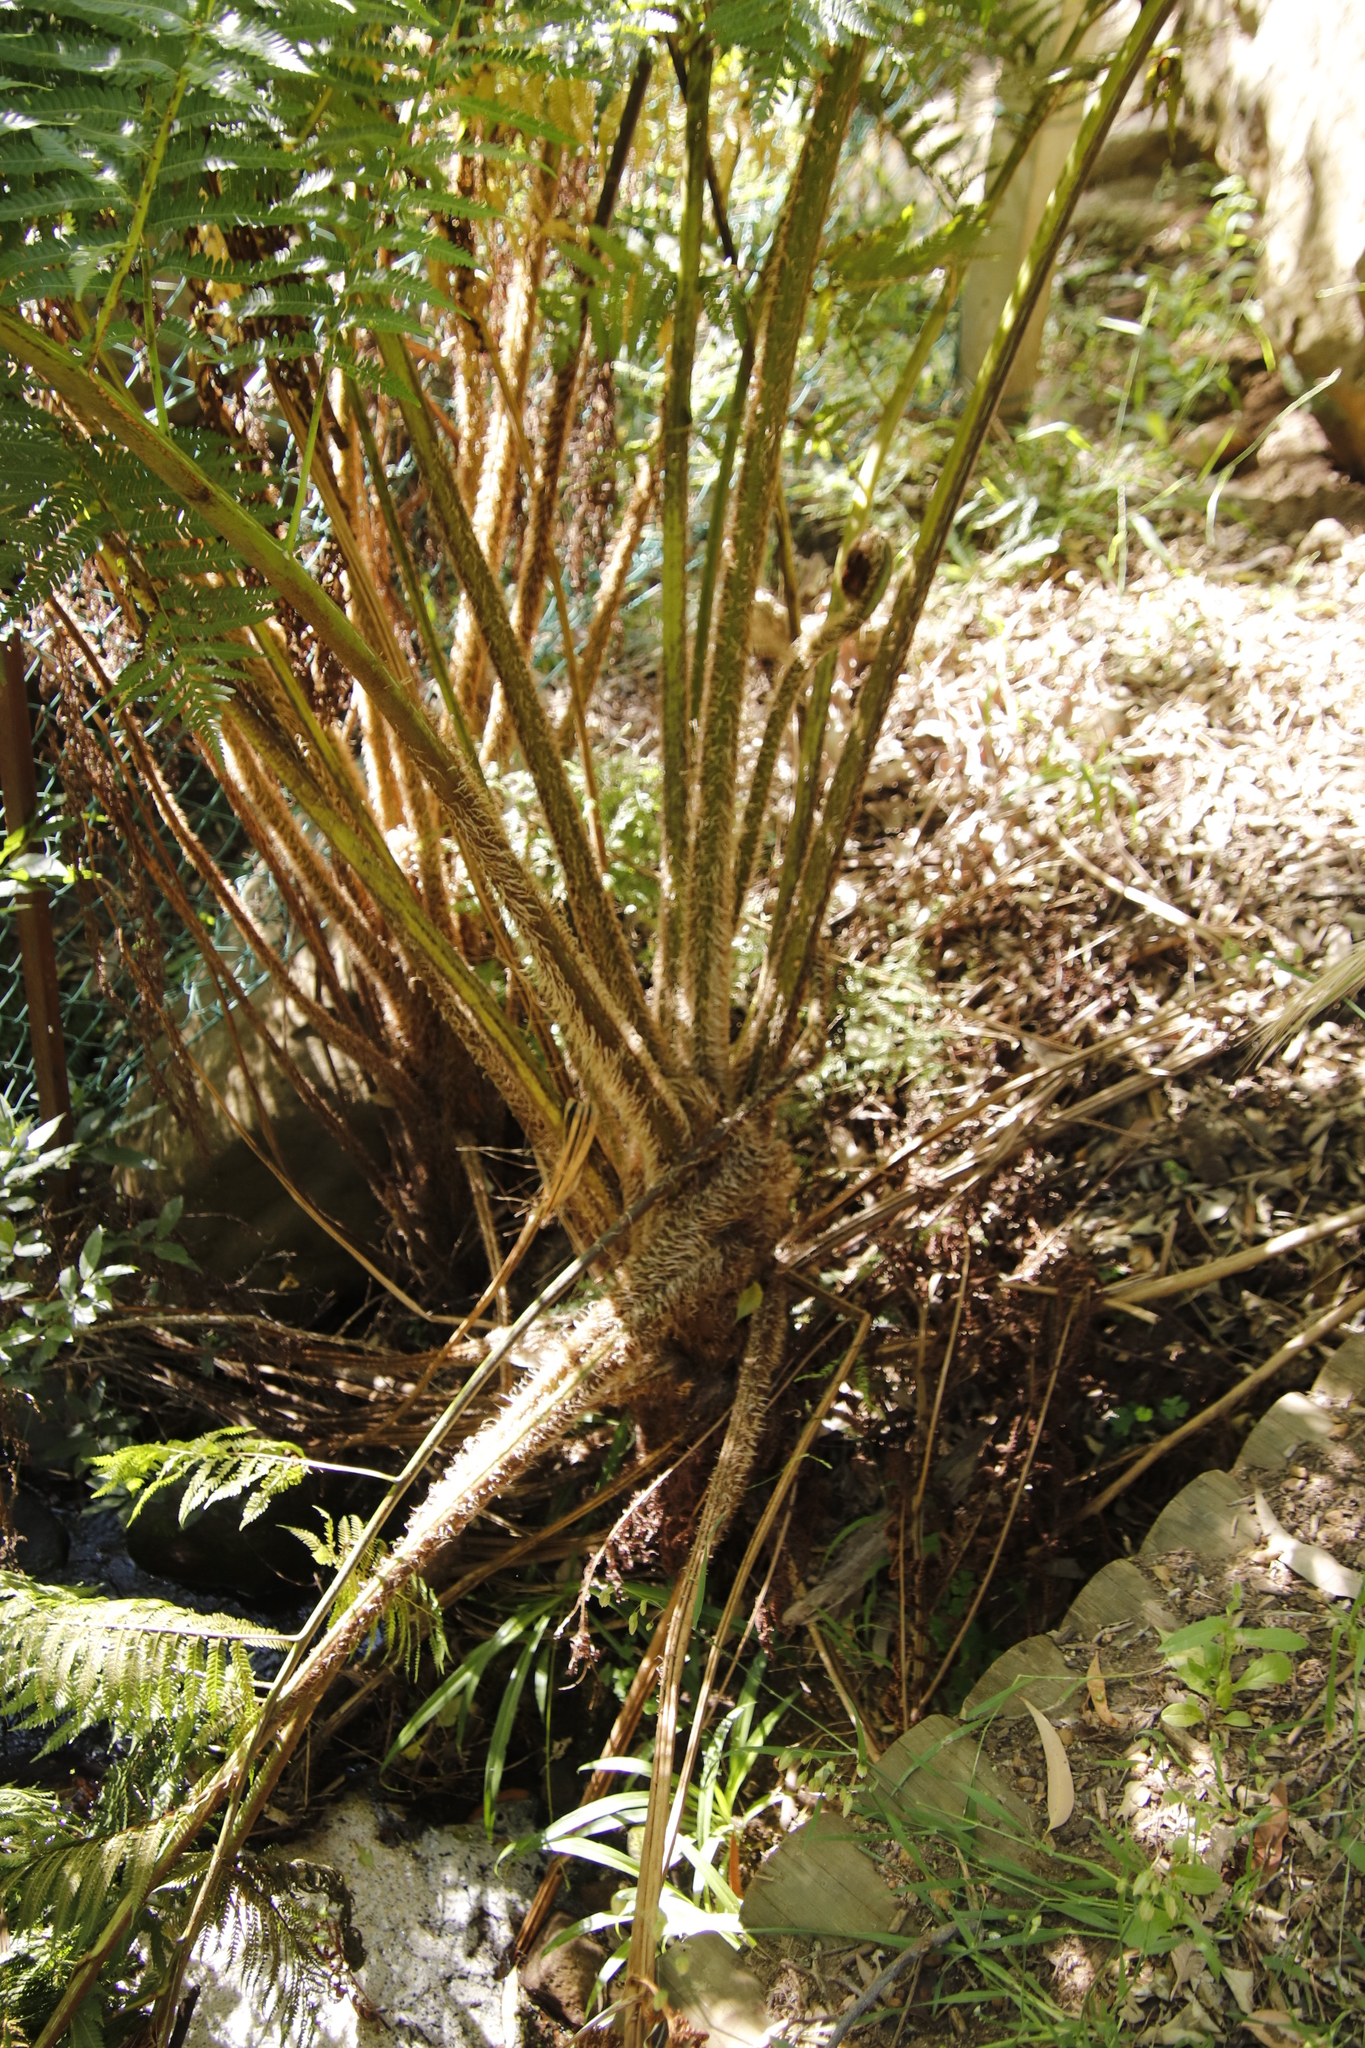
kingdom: Plantae
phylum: Tracheophyta
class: Polypodiopsida
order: Cyatheales
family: Cyatheaceae
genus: Sphaeropteris
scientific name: Sphaeropteris cooperi
